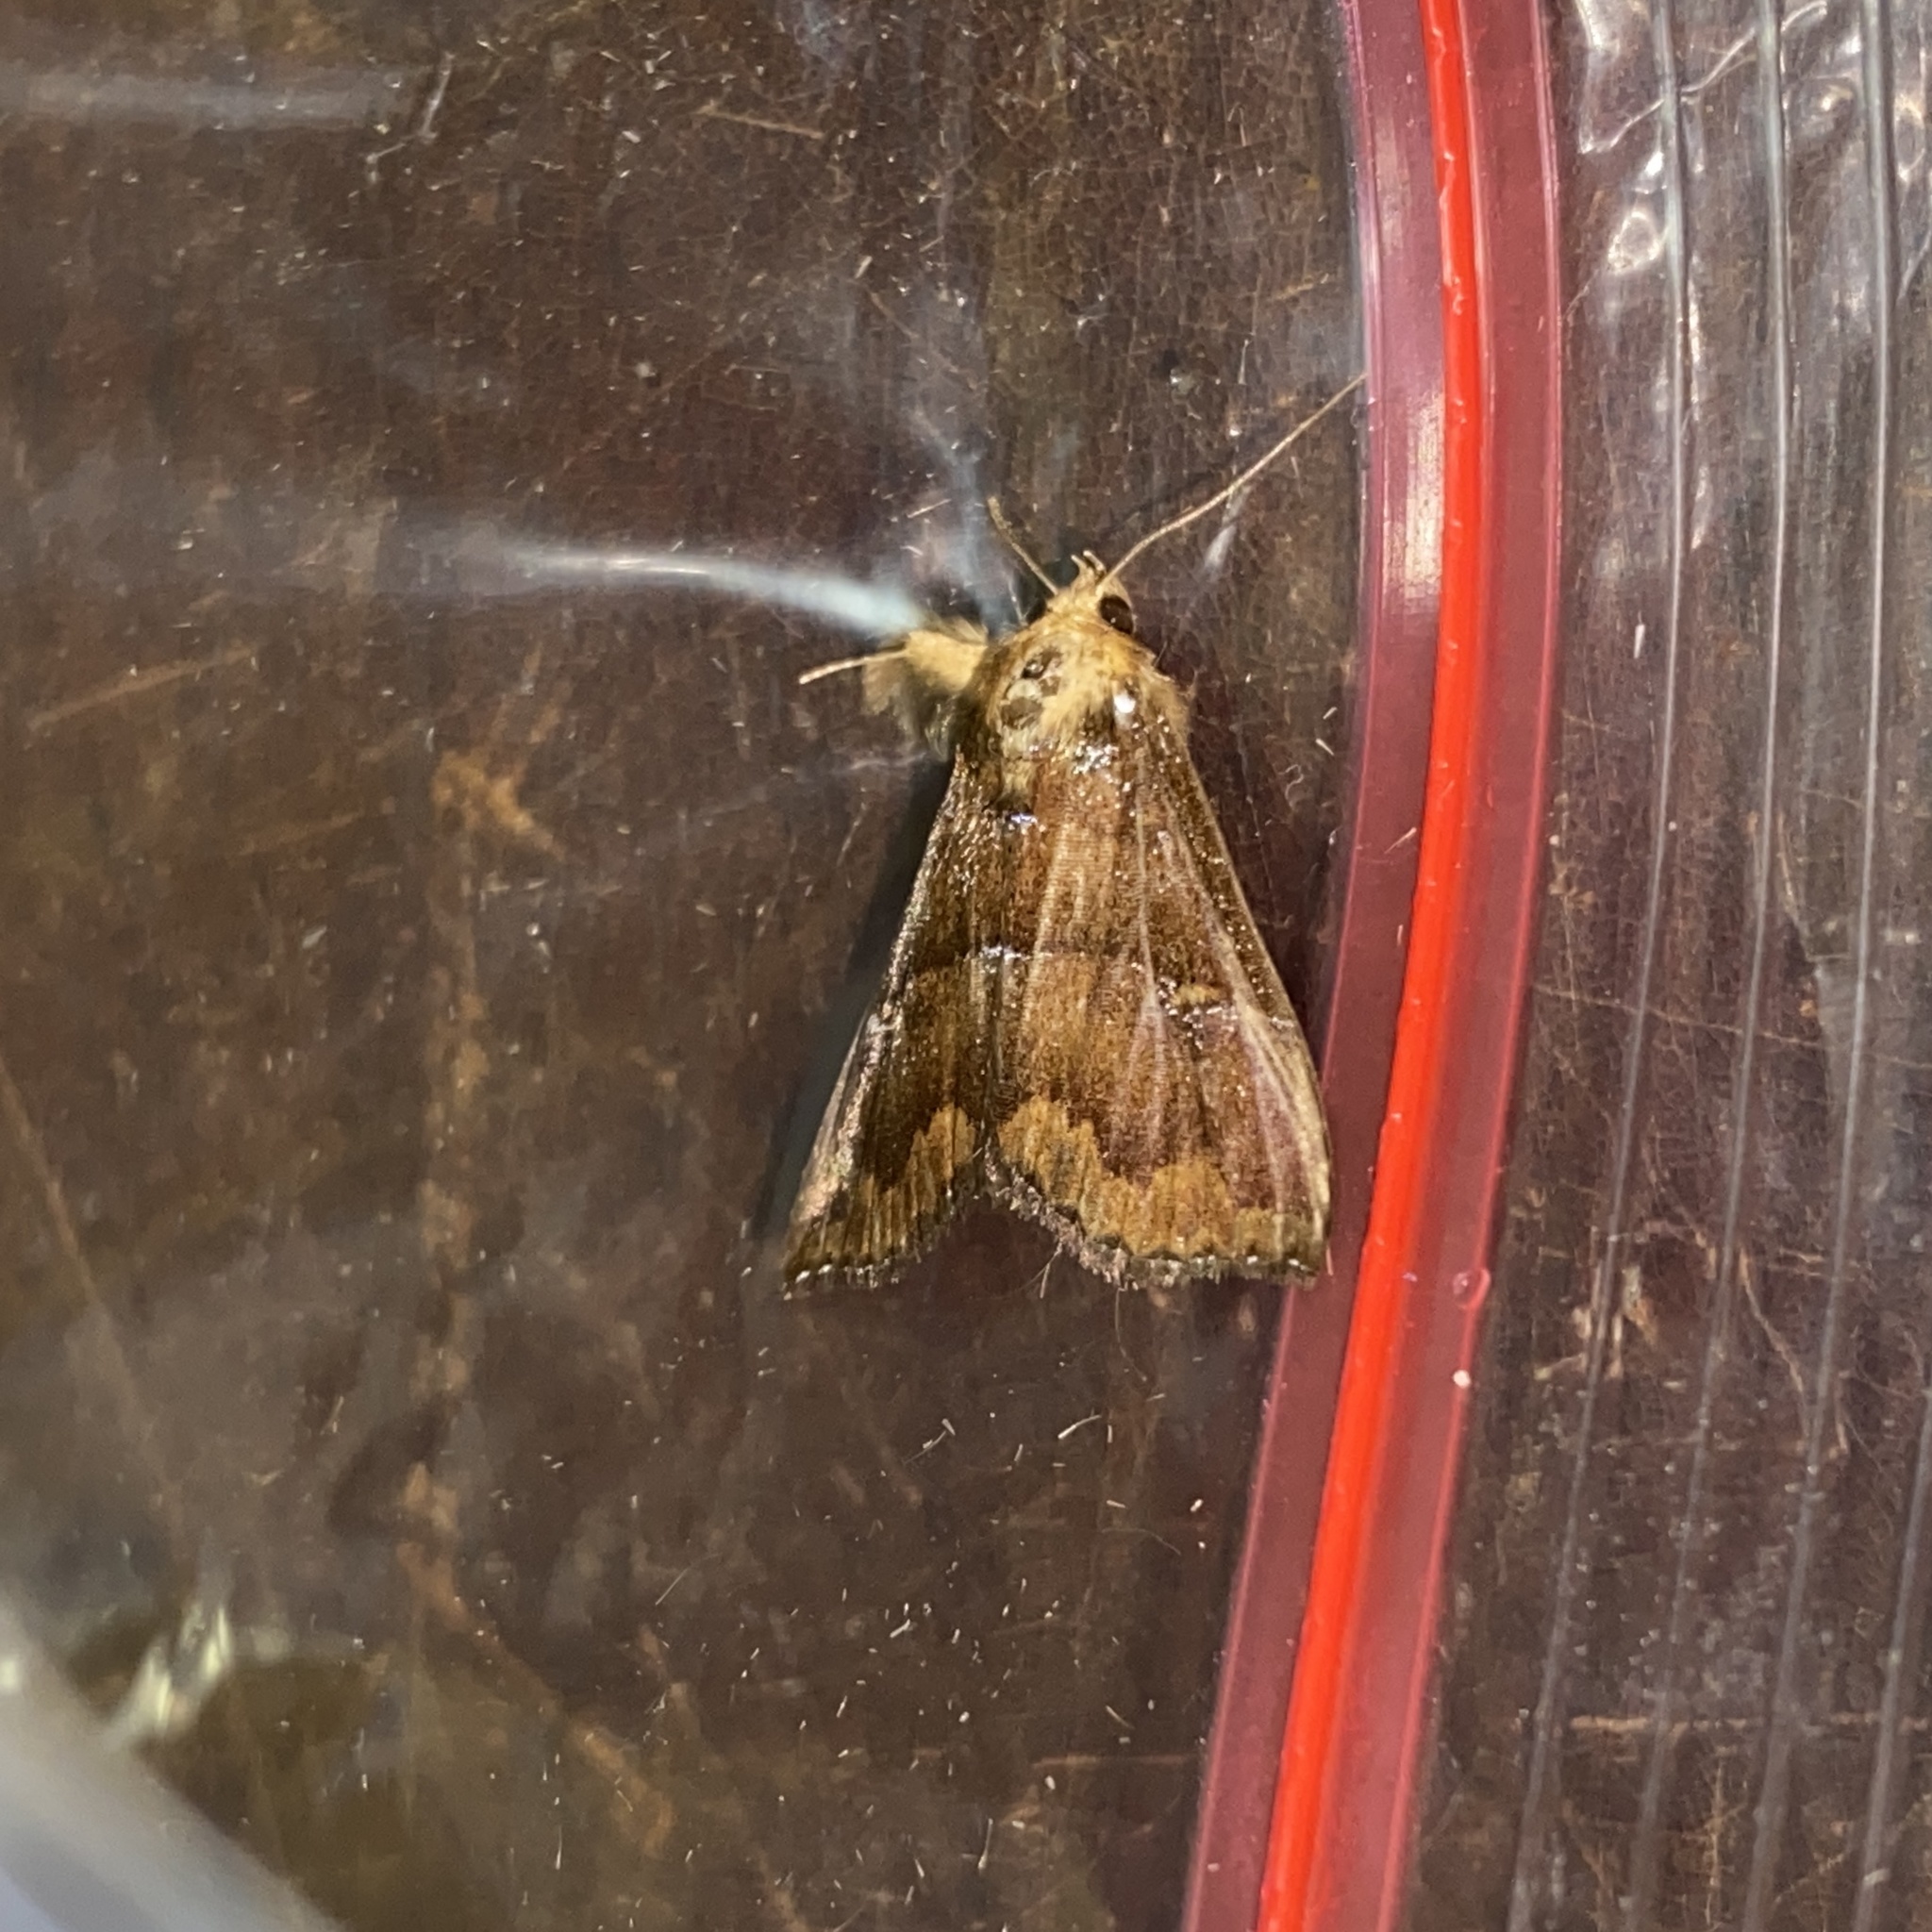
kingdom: Animalia
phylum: Arthropoda
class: Insecta
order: Lepidoptera
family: Erebidae
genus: Pseudostella
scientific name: Pseudostella cyanolepia
